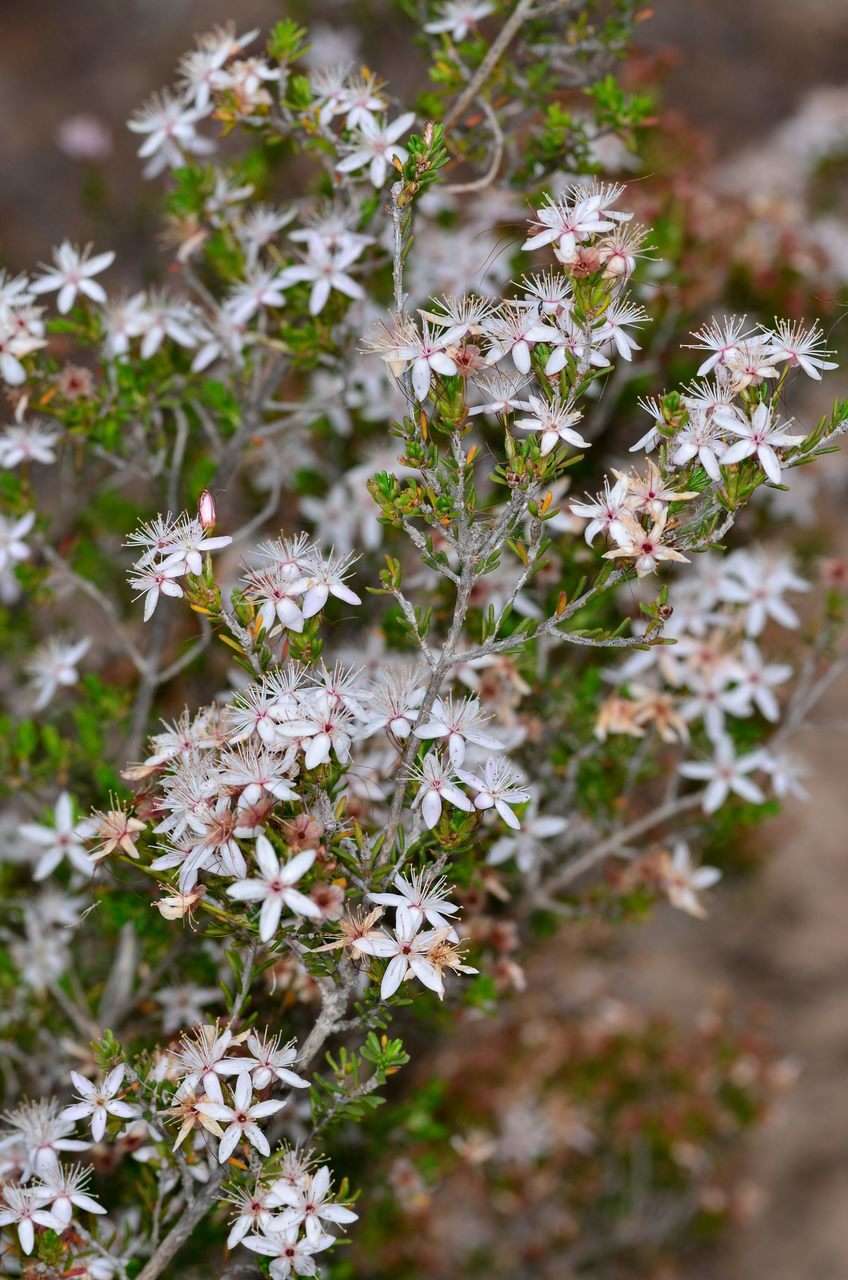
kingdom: Plantae
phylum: Tracheophyta
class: Magnoliopsida
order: Myrtales
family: Myrtaceae
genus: Calytrix
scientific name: Calytrix tetragona
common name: Common fringe myrtle
